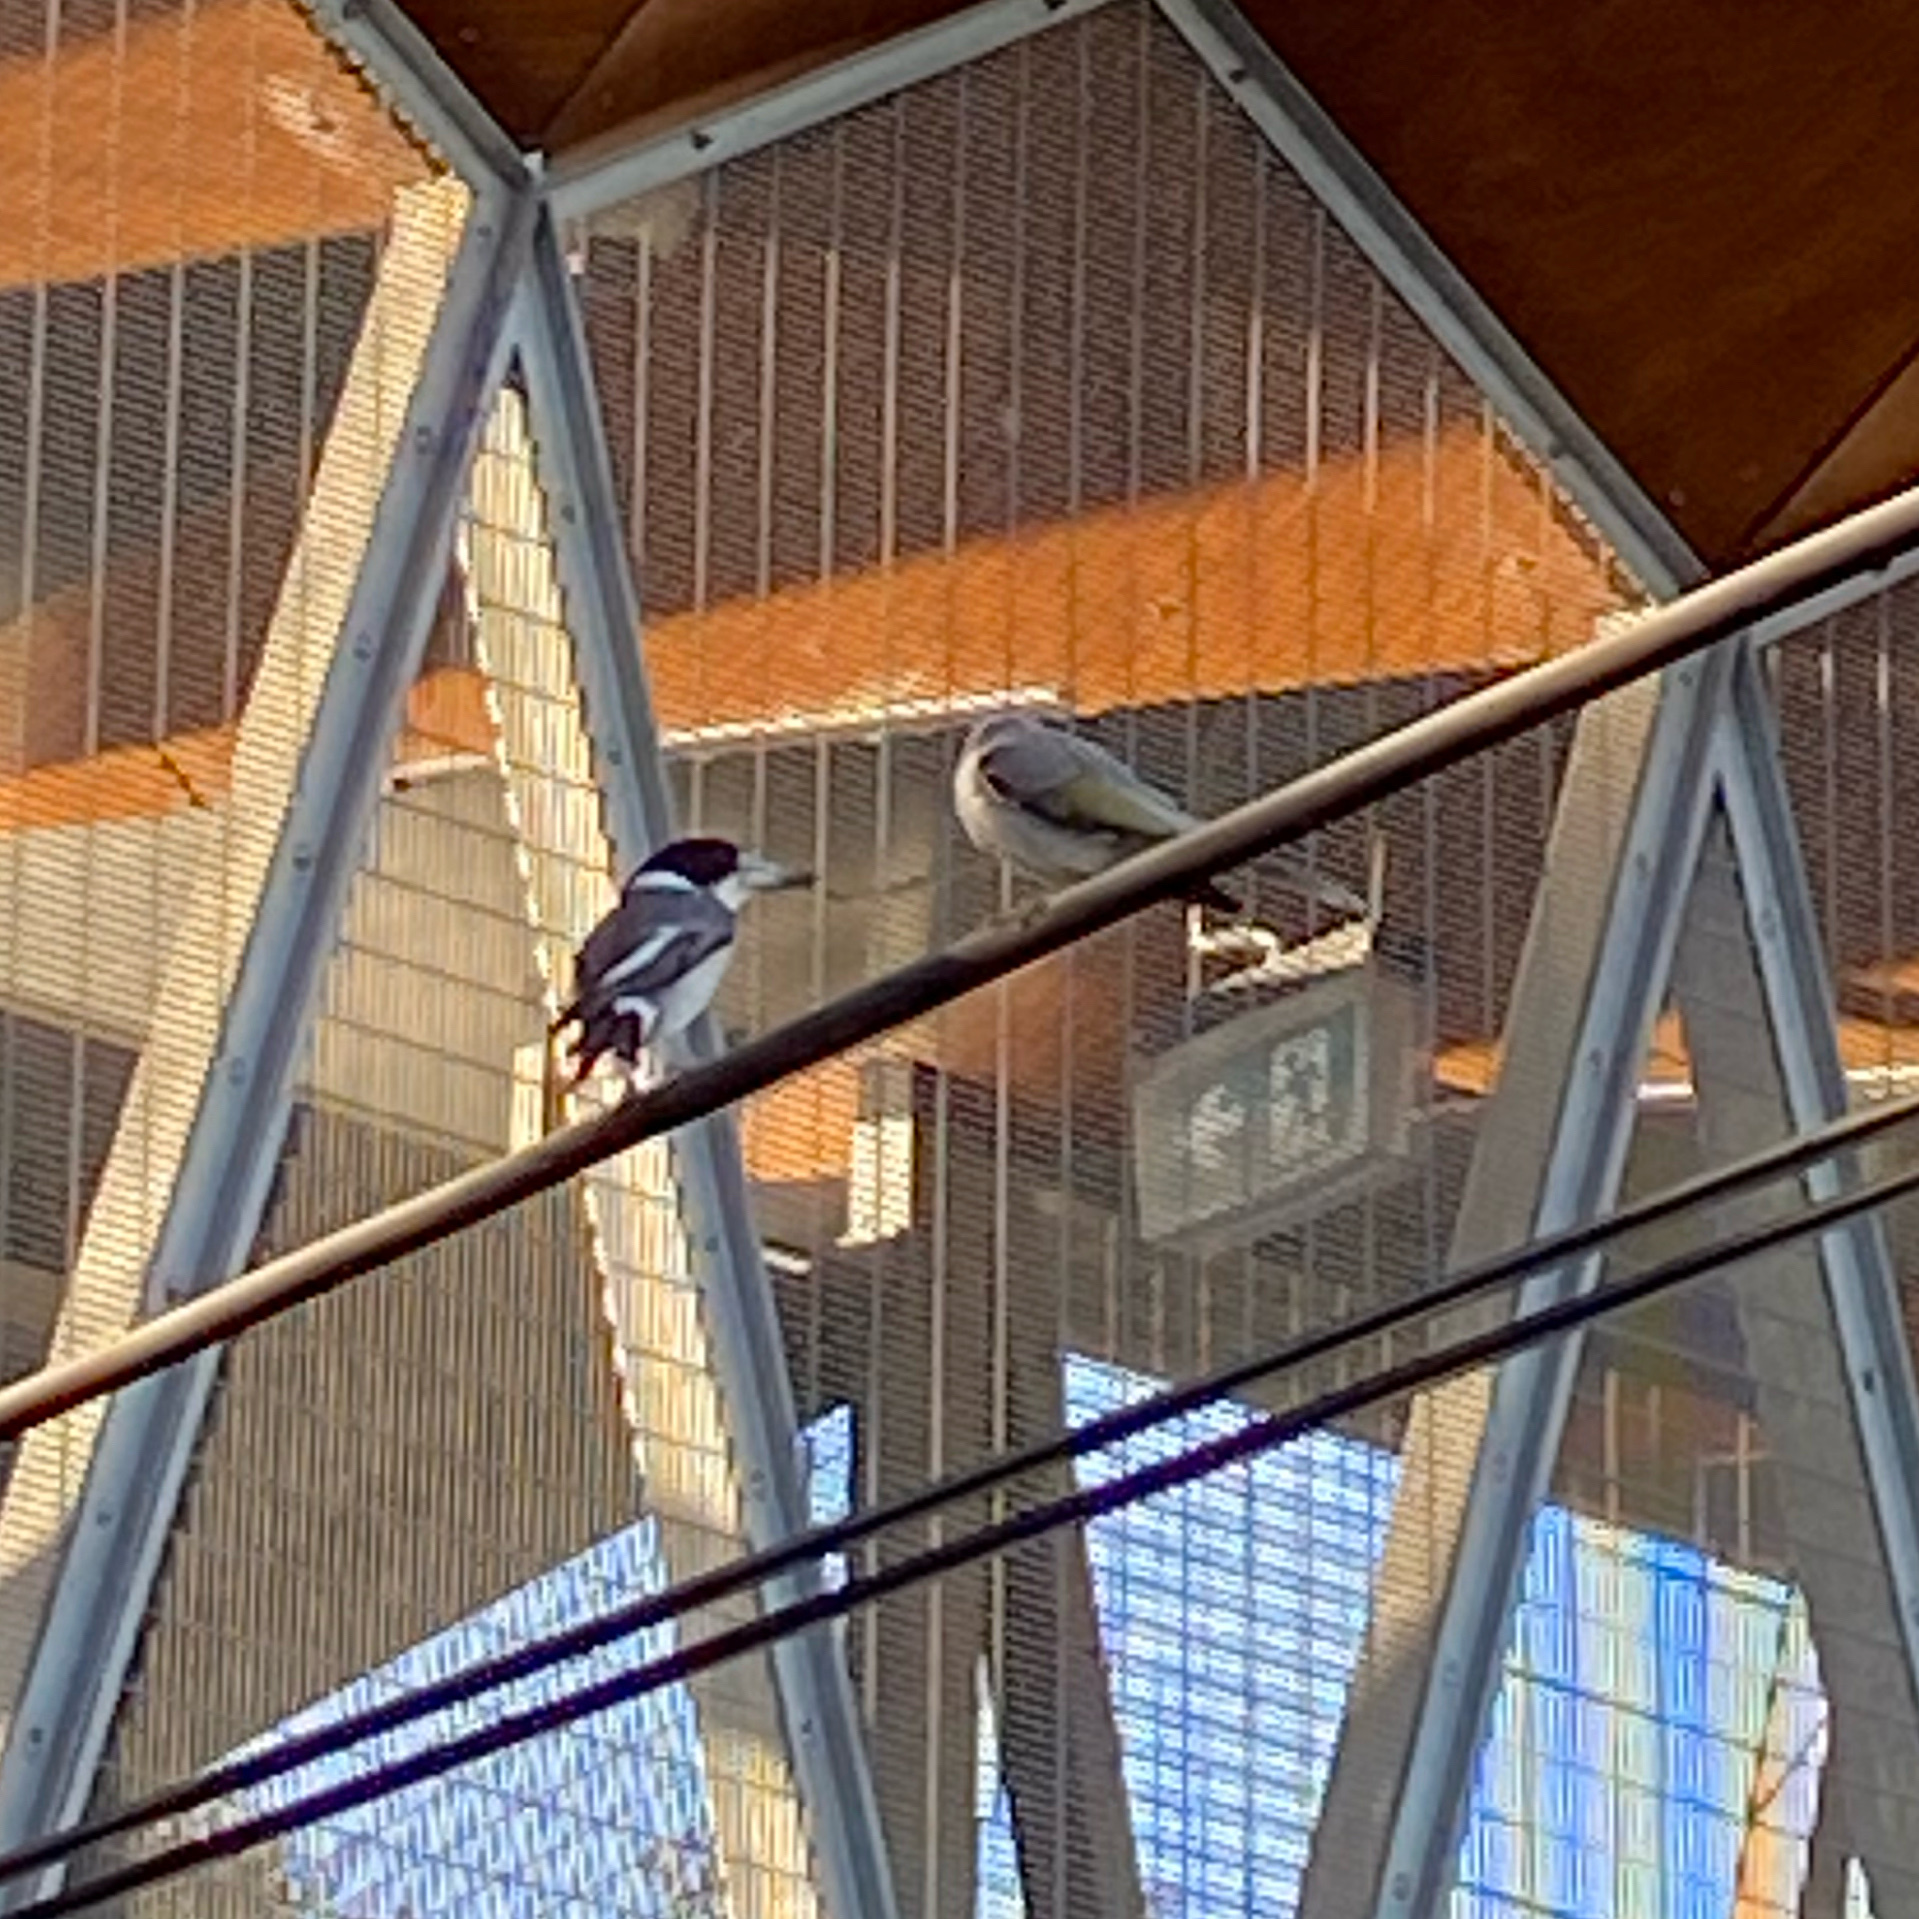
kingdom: Animalia
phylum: Chordata
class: Aves
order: Passeriformes
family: Cracticidae
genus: Cracticus
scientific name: Cracticus torquatus
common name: Grey butcherbird
